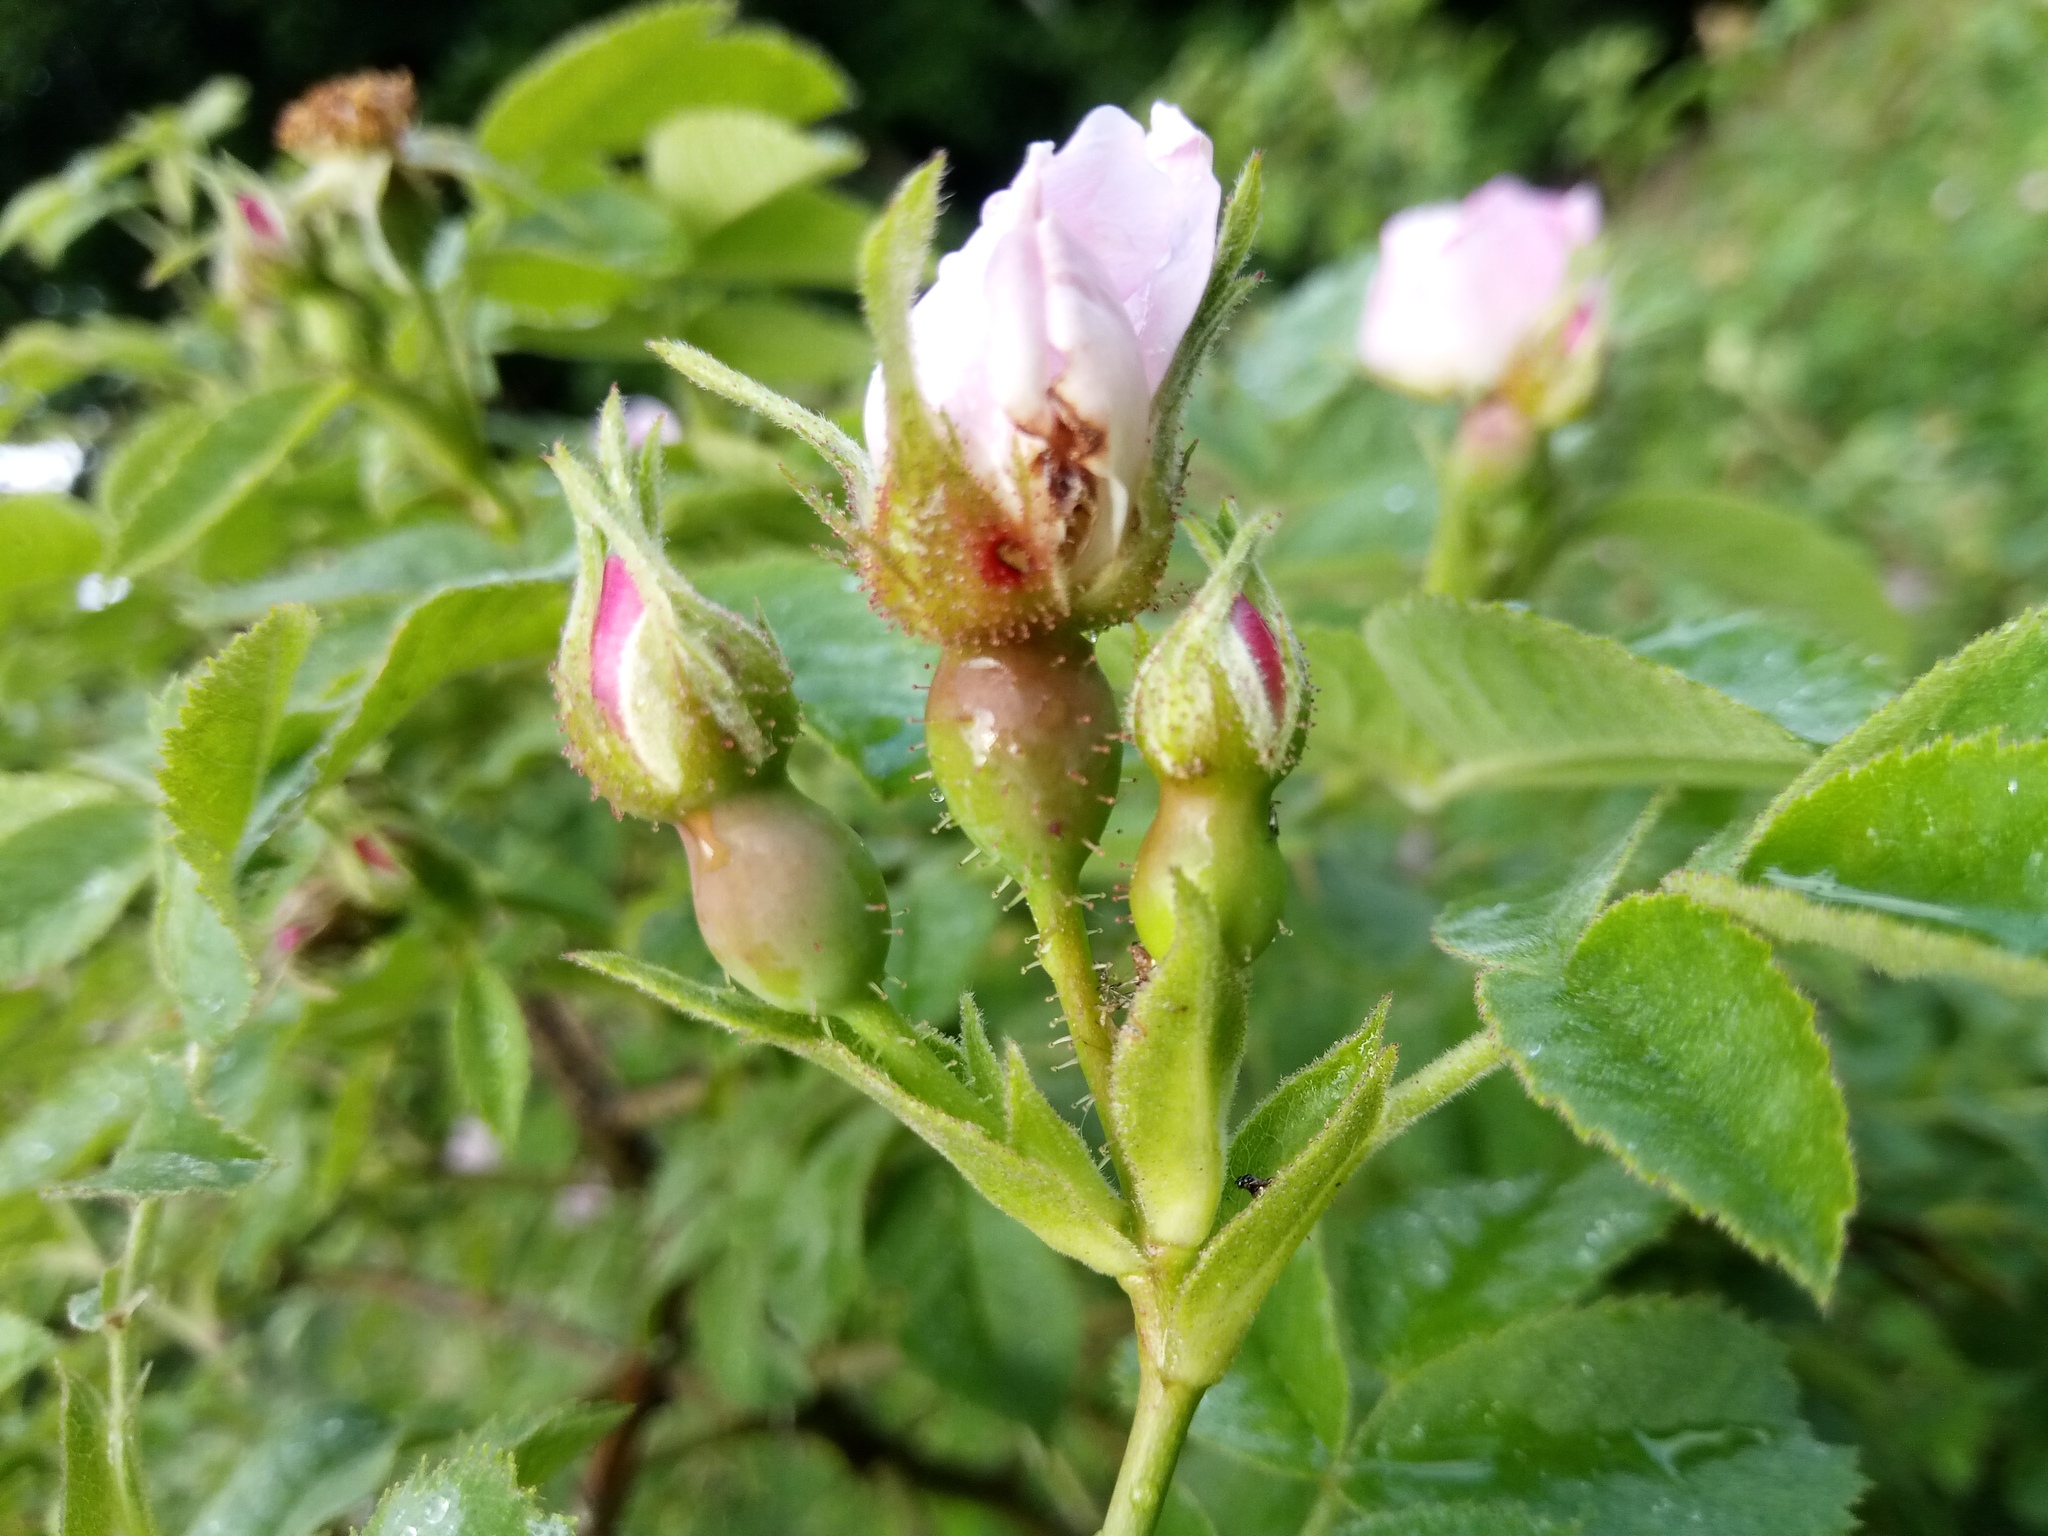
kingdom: Plantae
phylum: Tracheophyta
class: Magnoliopsida
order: Rosales
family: Rosaceae
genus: Rosa
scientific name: Rosa sherardii
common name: Sherard's downy rose
